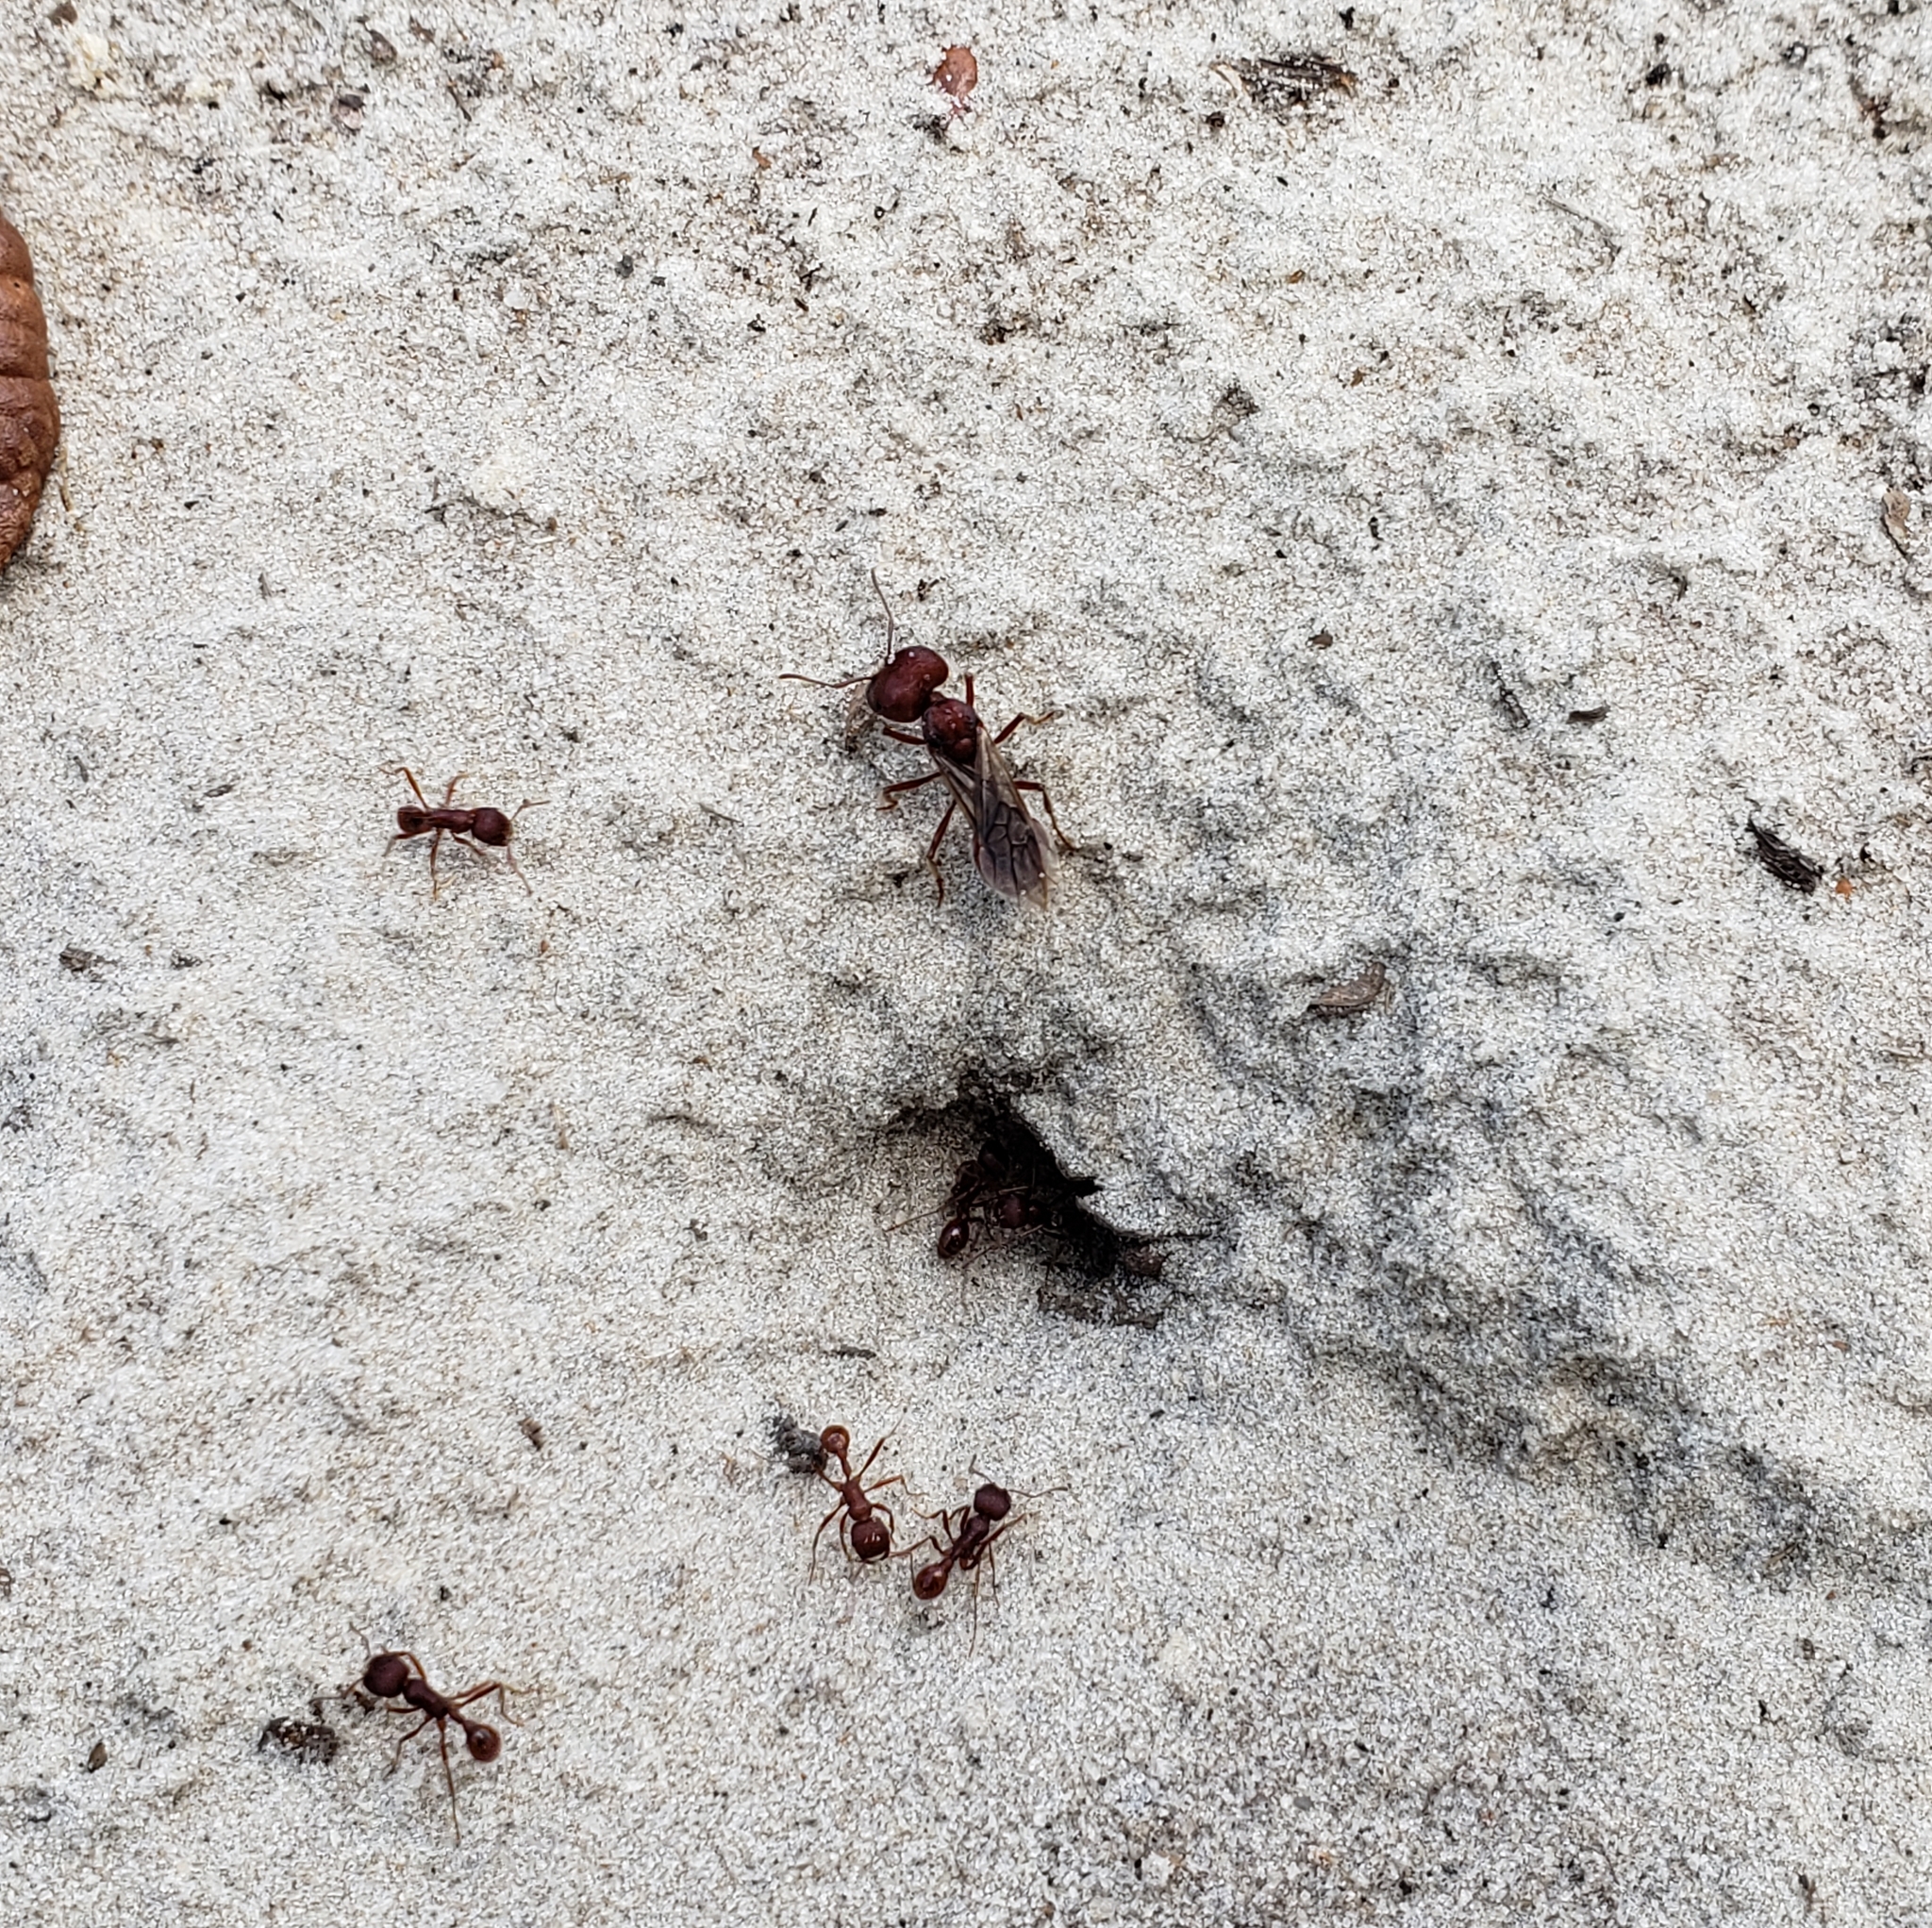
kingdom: Animalia
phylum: Arthropoda
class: Insecta
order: Hymenoptera
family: Formicidae
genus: Pogonomyrmex
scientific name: Pogonomyrmex badius
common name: Florida harvester ant
